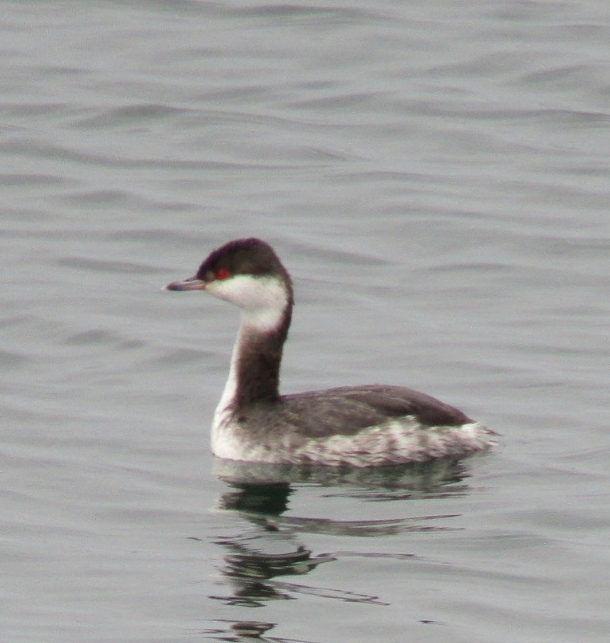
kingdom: Animalia
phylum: Chordata
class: Aves
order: Podicipediformes
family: Podicipedidae
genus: Podiceps
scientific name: Podiceps auritus
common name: Horned grebe
